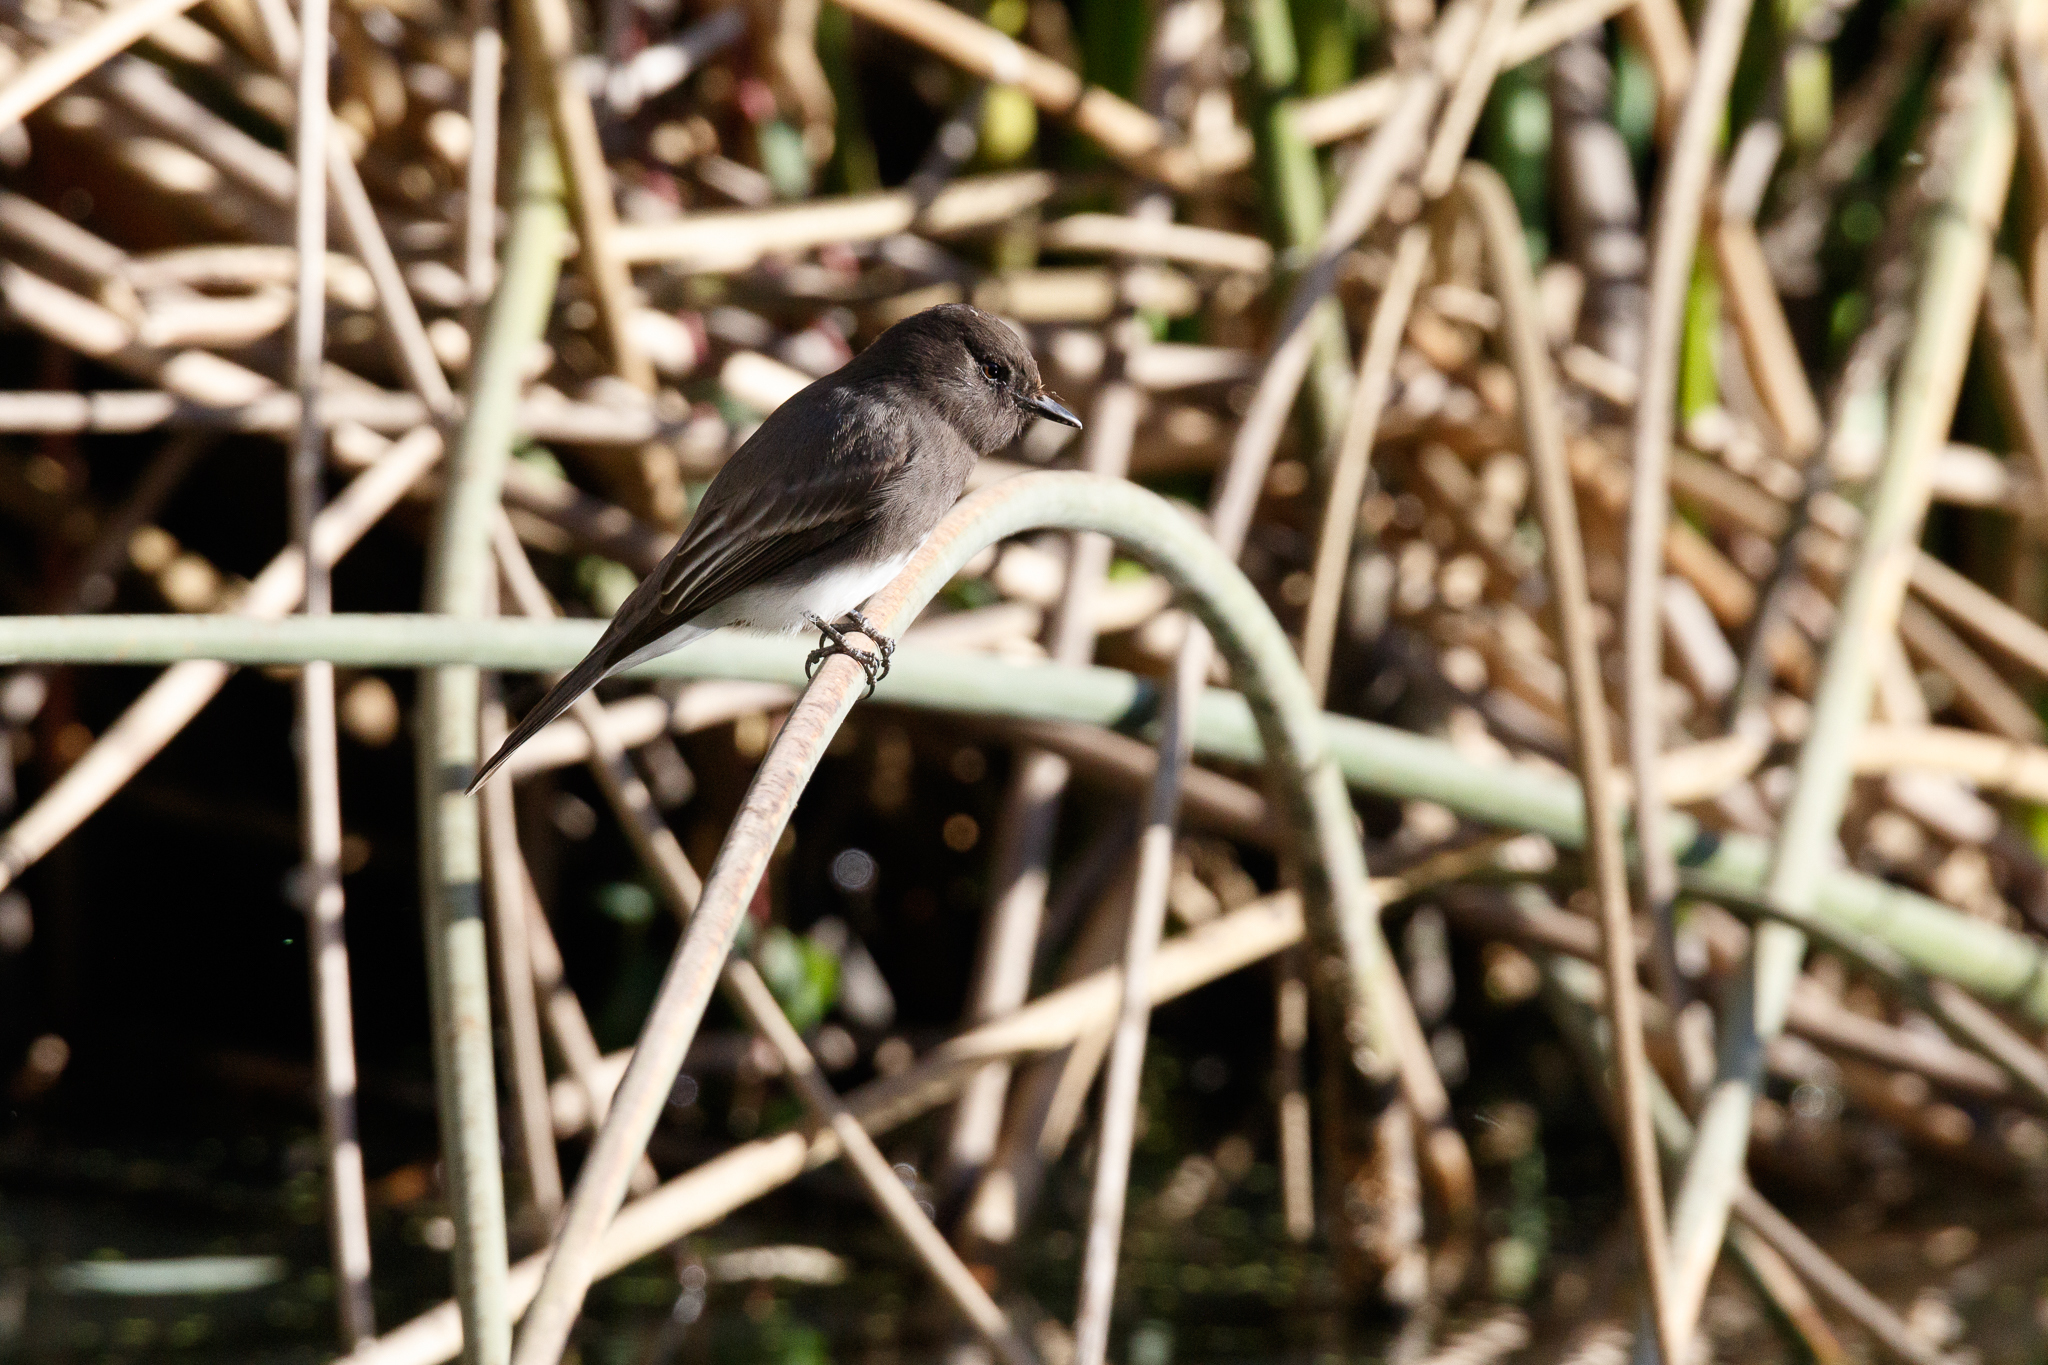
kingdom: Animalia
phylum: Chordata
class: Aves
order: Passeriformes
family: Tyrannidae
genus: Sayornis
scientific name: Sayornis nigricans
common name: Black phoebe
